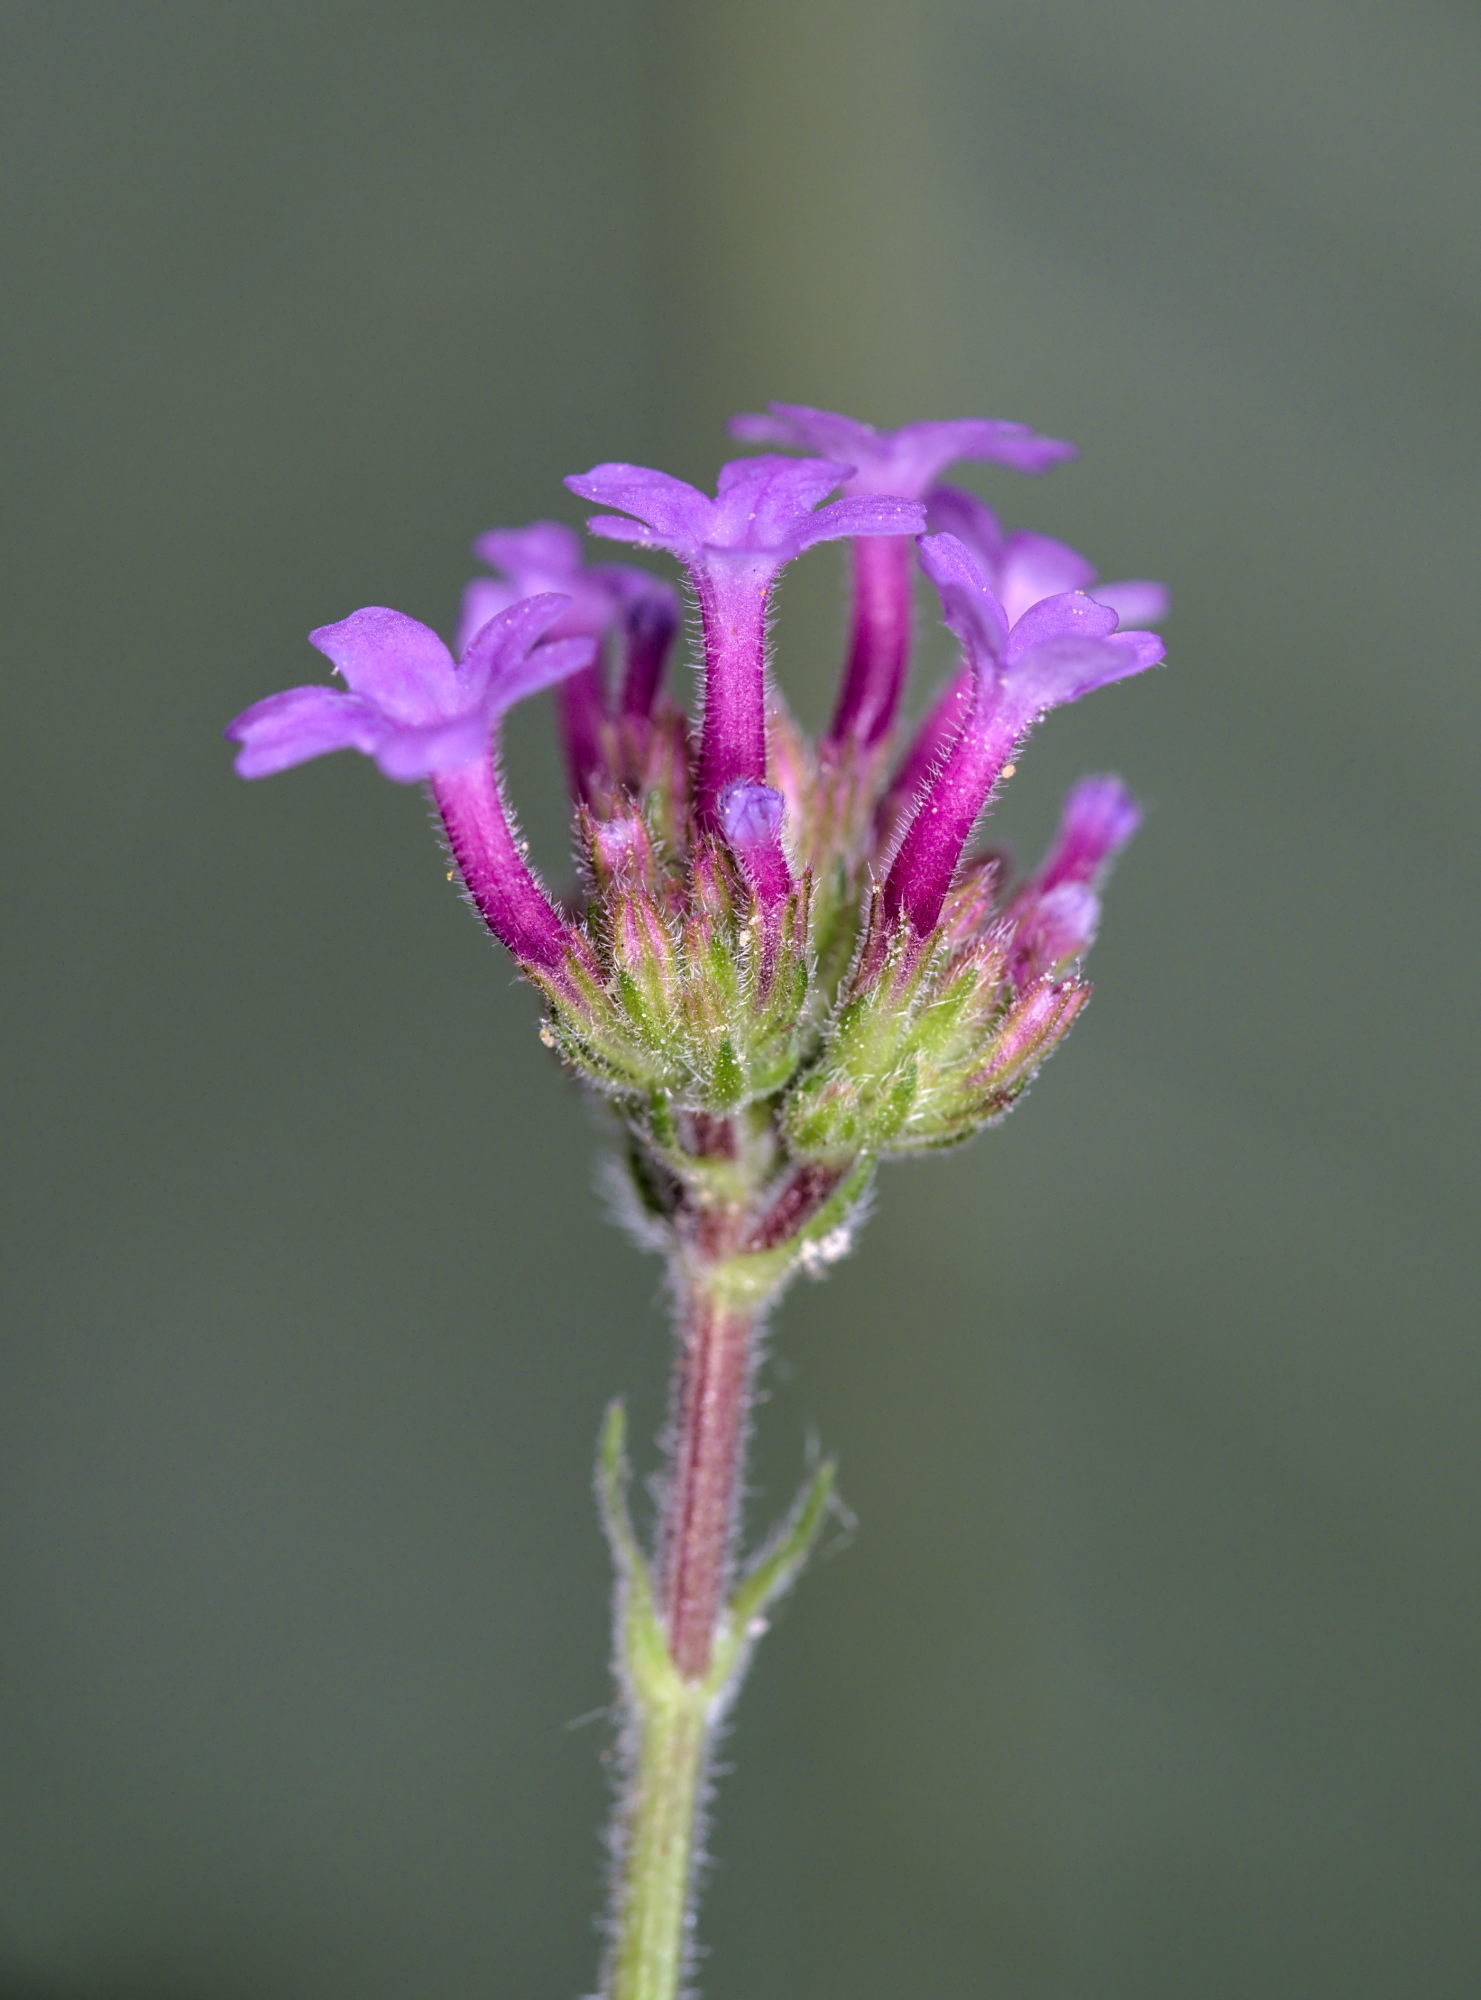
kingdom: Plantae
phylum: Tracheophyta
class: Magnoliopsida
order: Lamiales
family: Verbenaceae
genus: Verbena
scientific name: Verbena bonariensis
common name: Purpletop vervain
